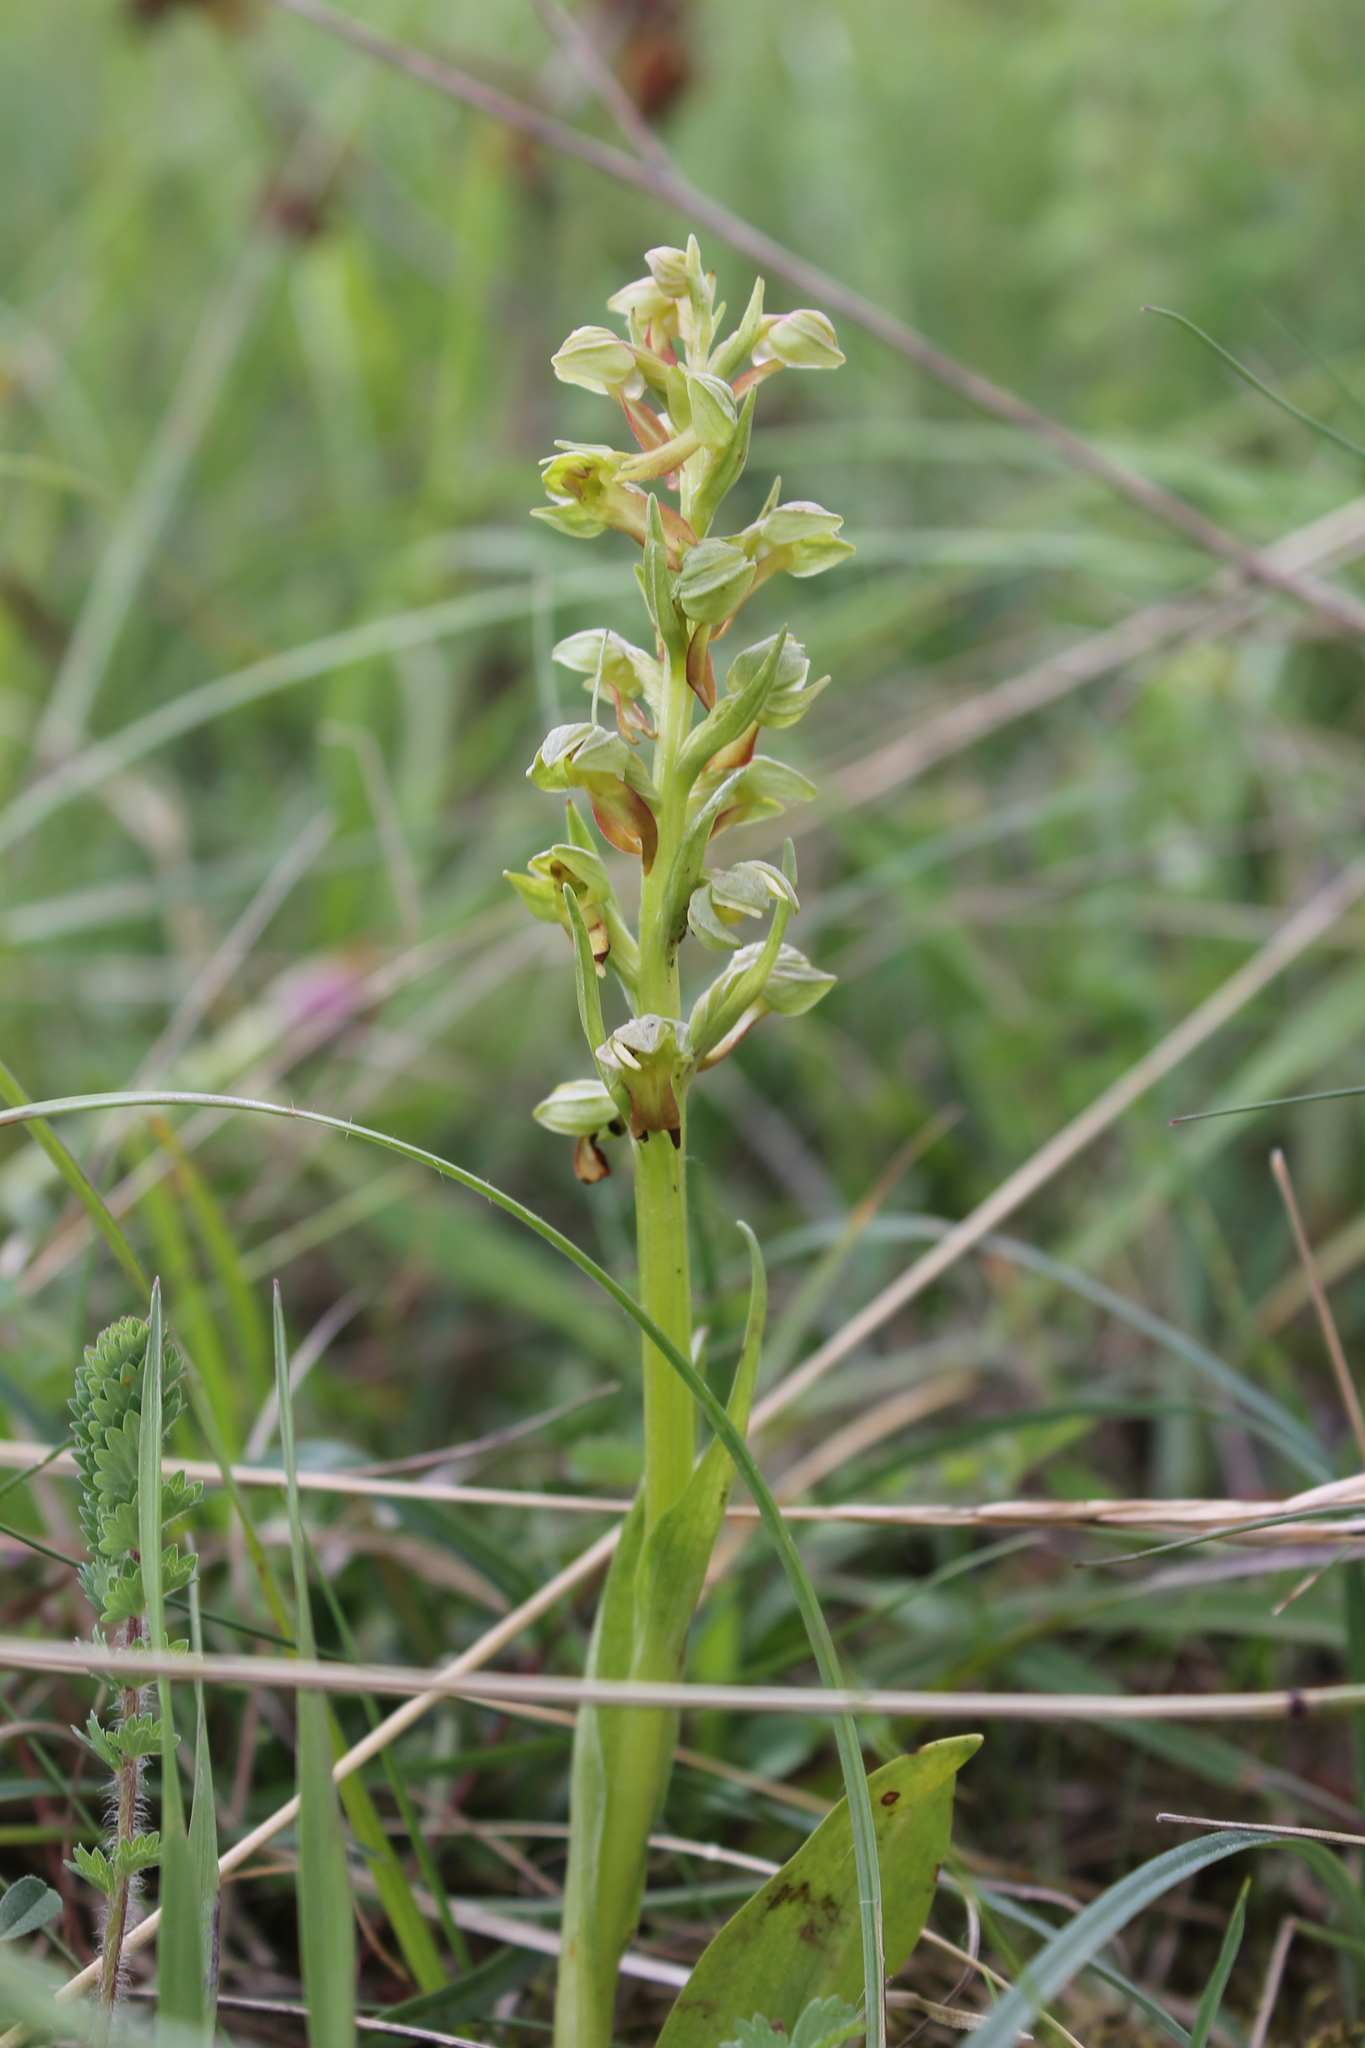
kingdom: Plantae
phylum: Tracheophyta
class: Liliopsida
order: Asparagales
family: Orchidaceae
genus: Dactylorhiza
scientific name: Dactylorhiza viridis
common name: Longbract frog orchid
